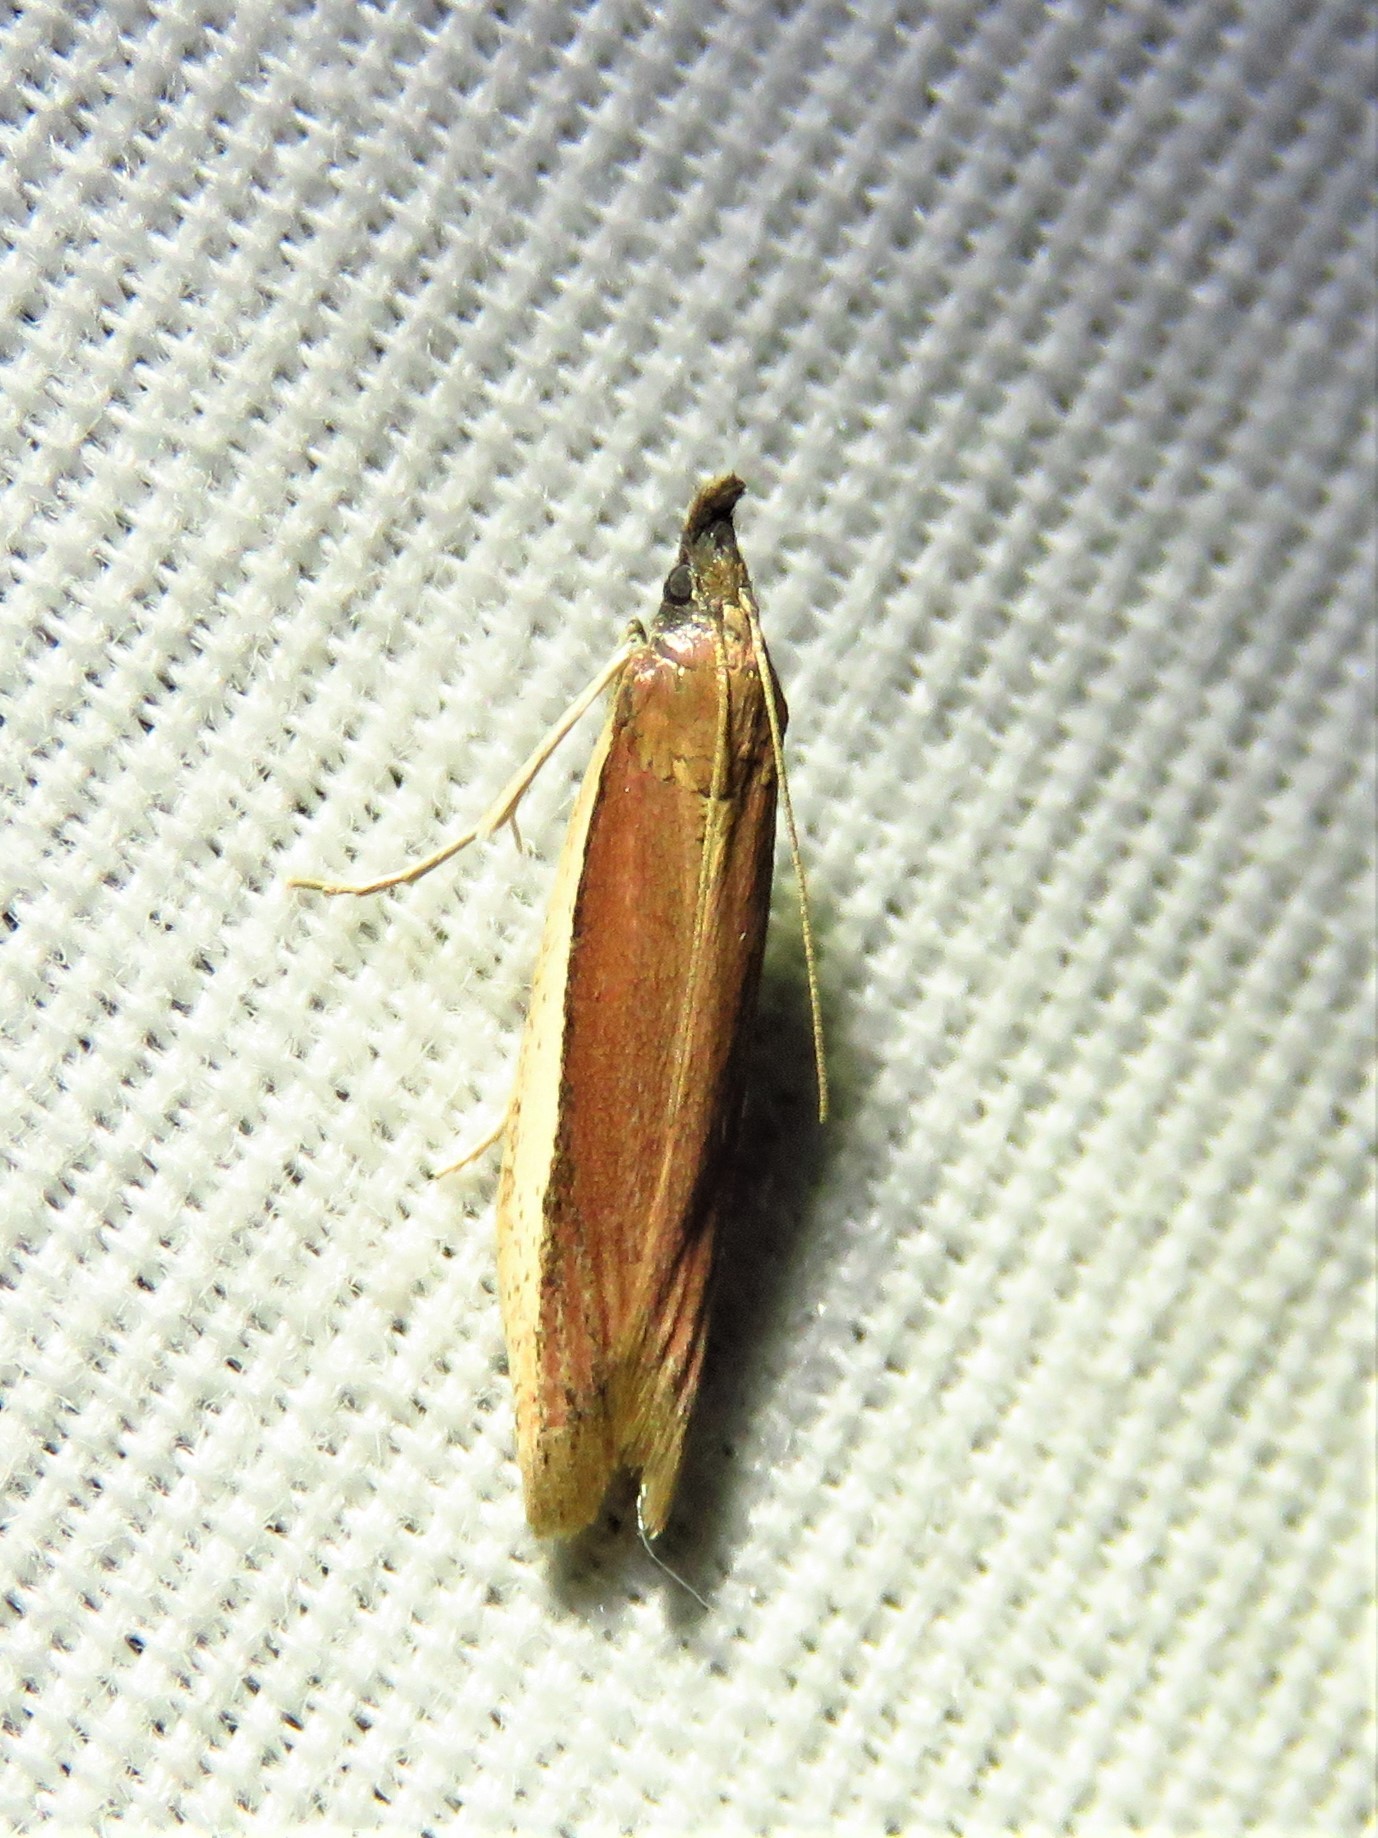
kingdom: Animalia
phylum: Arthropoda
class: Insecta
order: Lepidoptera
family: Pyralidae
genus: Tampa
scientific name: Tampa dimediatella
